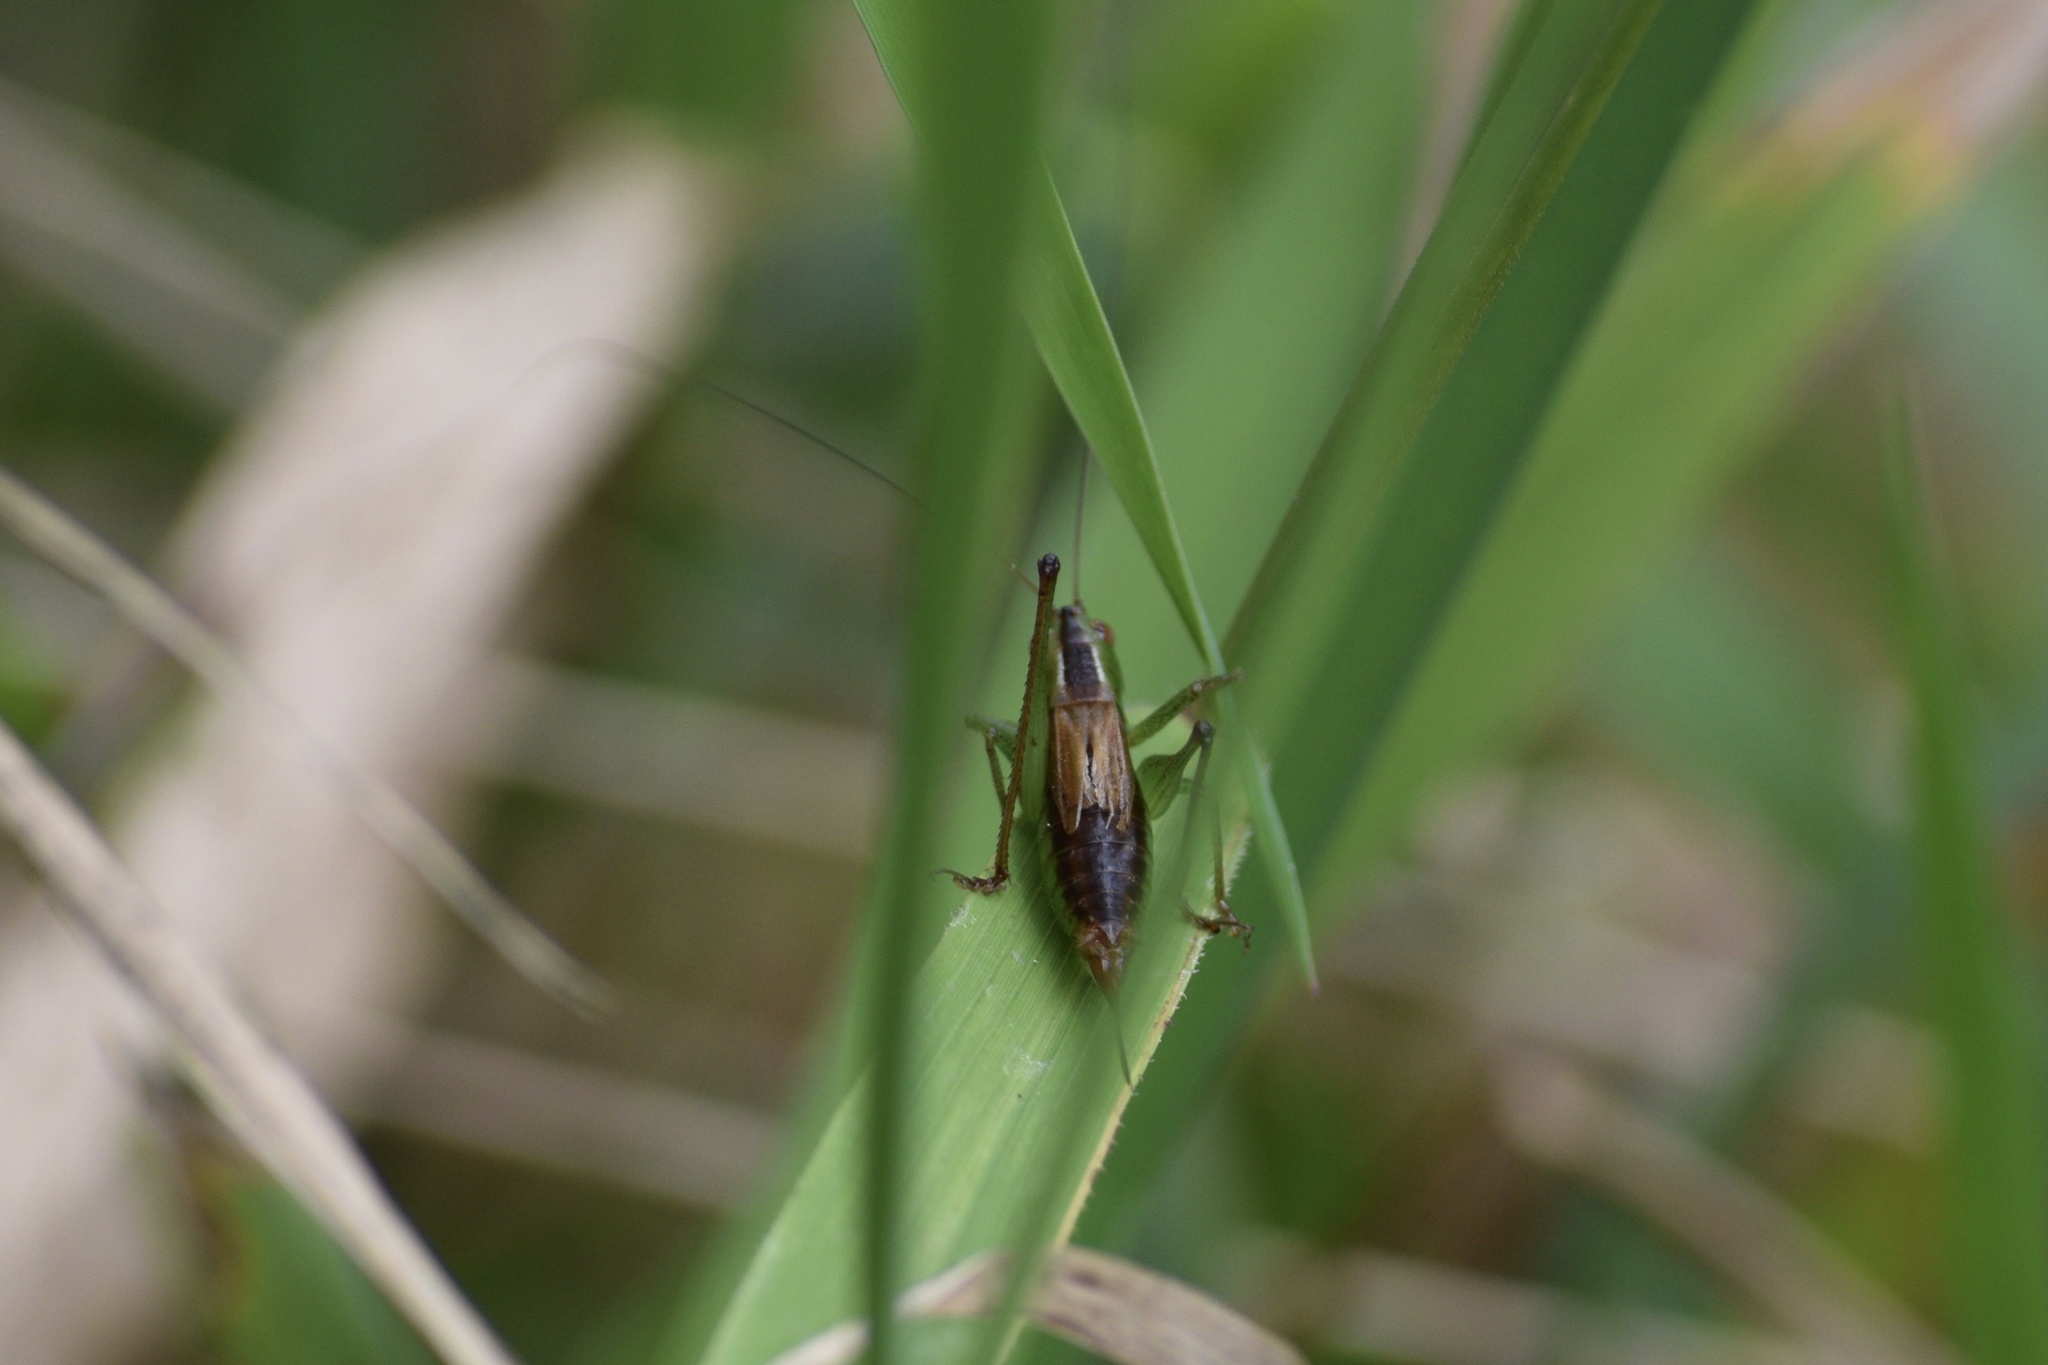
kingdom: Animalia
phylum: Arthropoda
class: Insecta
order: Orthoptera
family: Tettigoniidae
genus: Conocephalus
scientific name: Conocephalus brevipennis
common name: Short-winged meadow katydid
